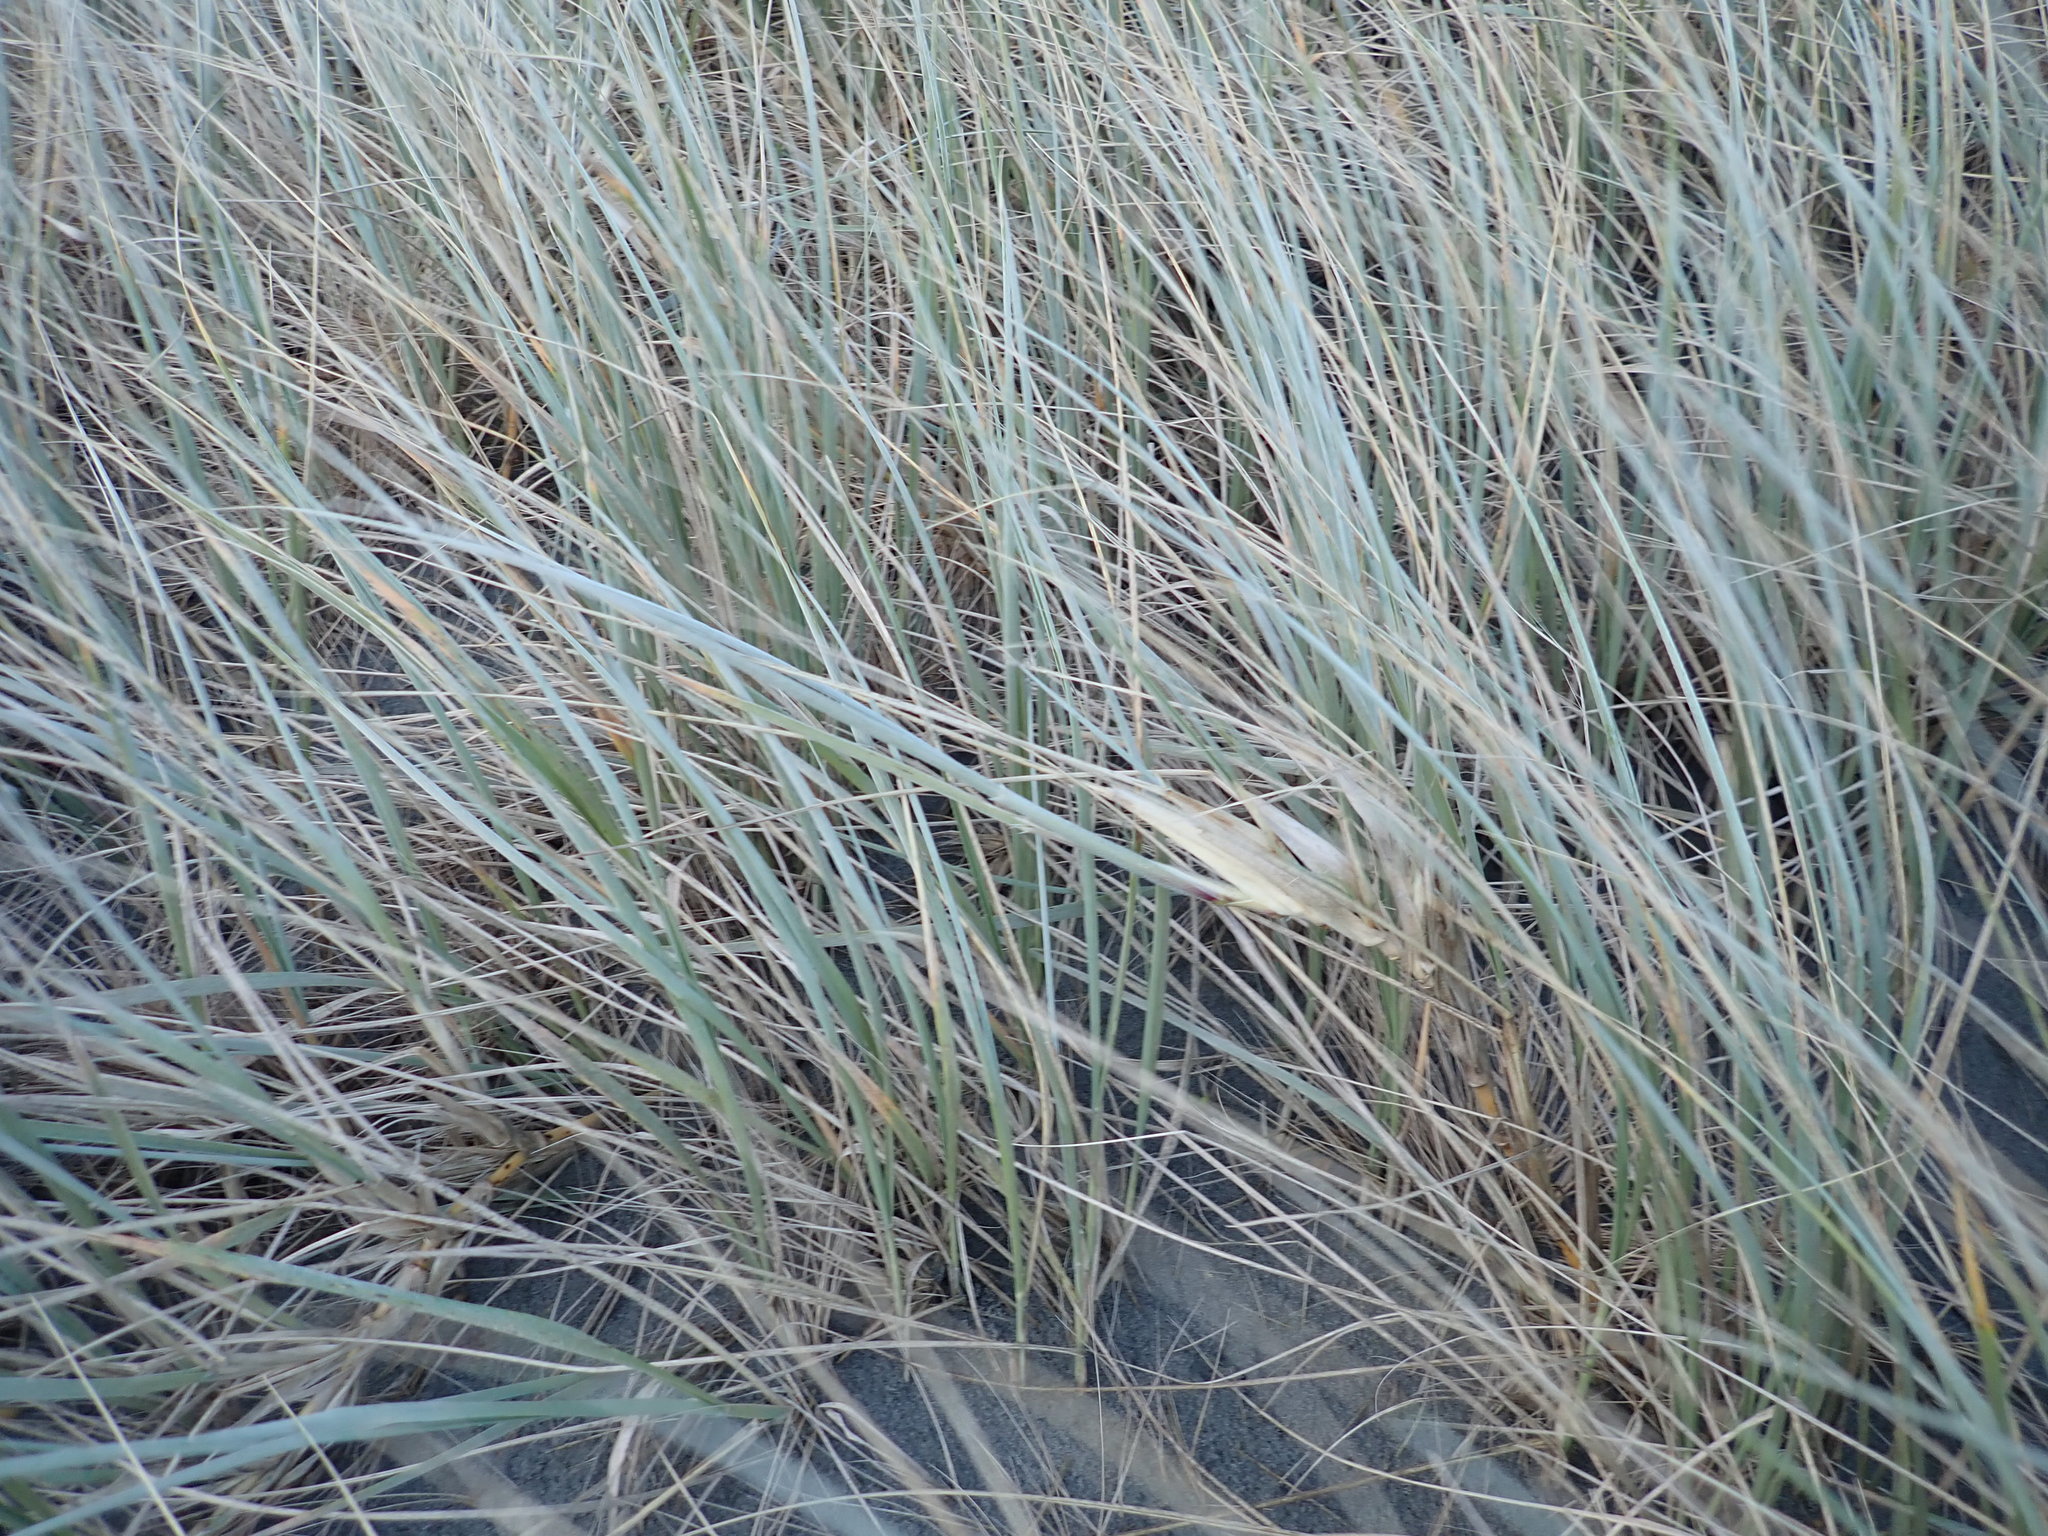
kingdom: Plantae
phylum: Tracheophyta
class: Liliopsida
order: Poales
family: Poaceae
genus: Spinifex
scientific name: Spinifex sericeus
